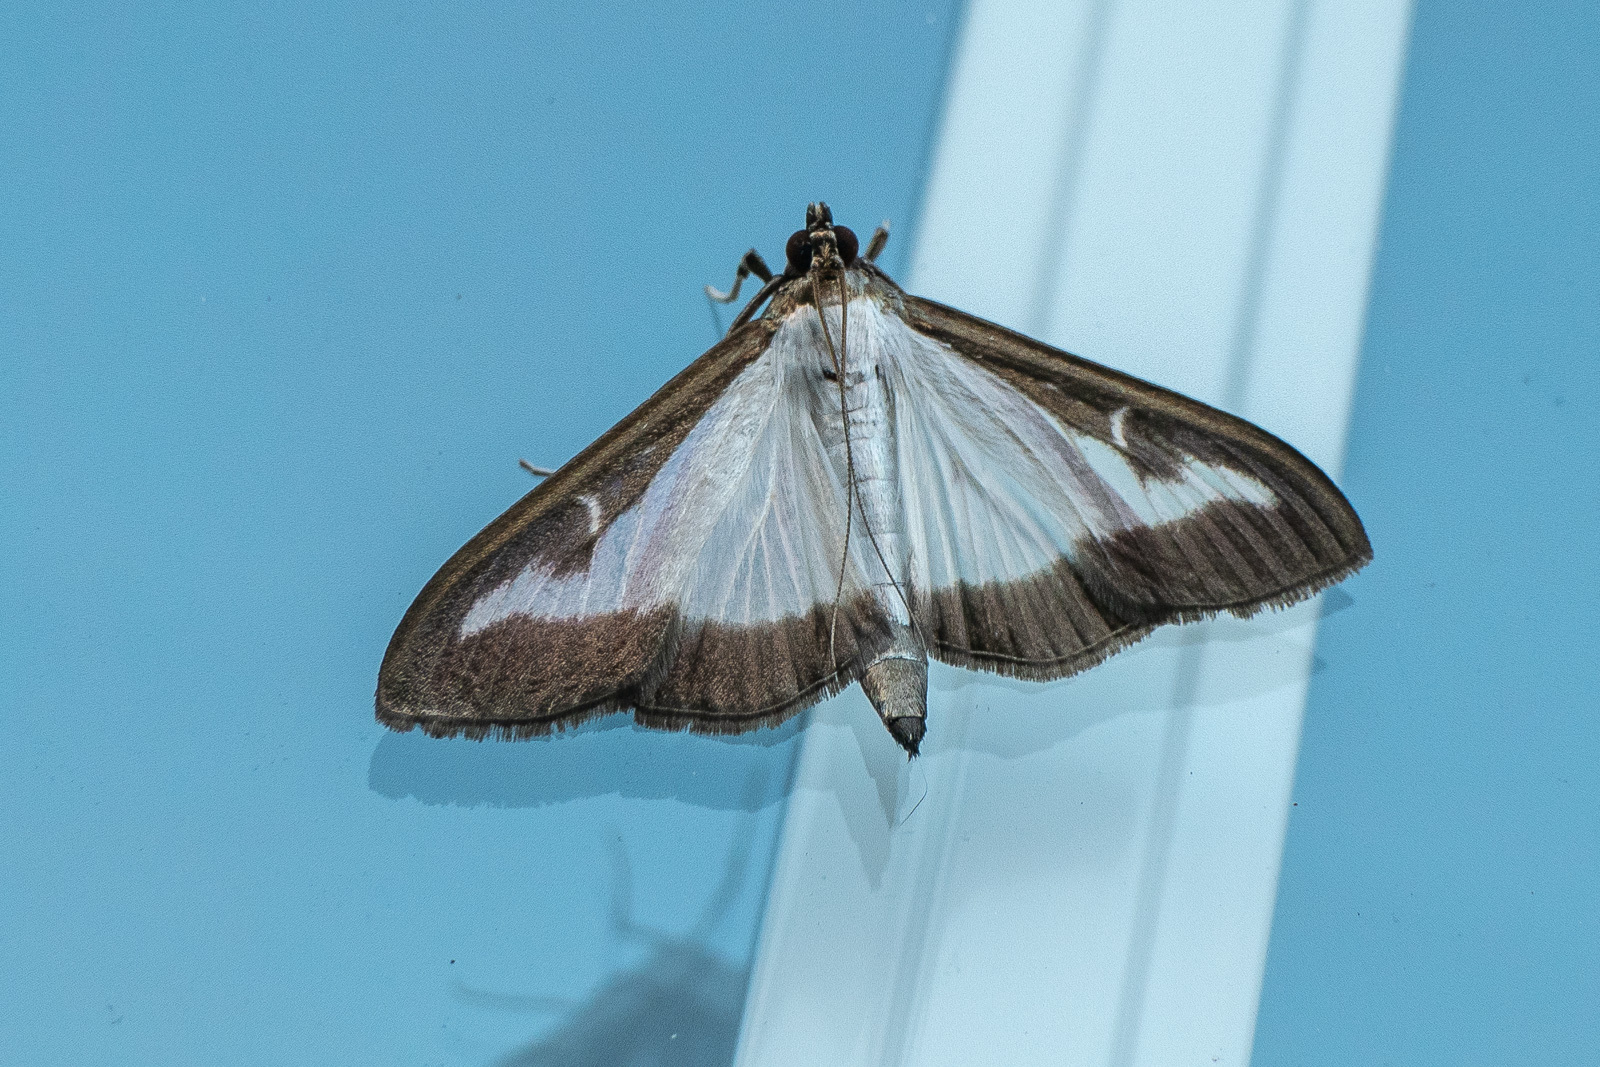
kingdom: Animalia
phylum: Arthropoda
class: Insecta
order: Lepidoptera
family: Crambidae
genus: Cydalima
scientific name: Cydalima perspectalis
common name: Box tree moth
